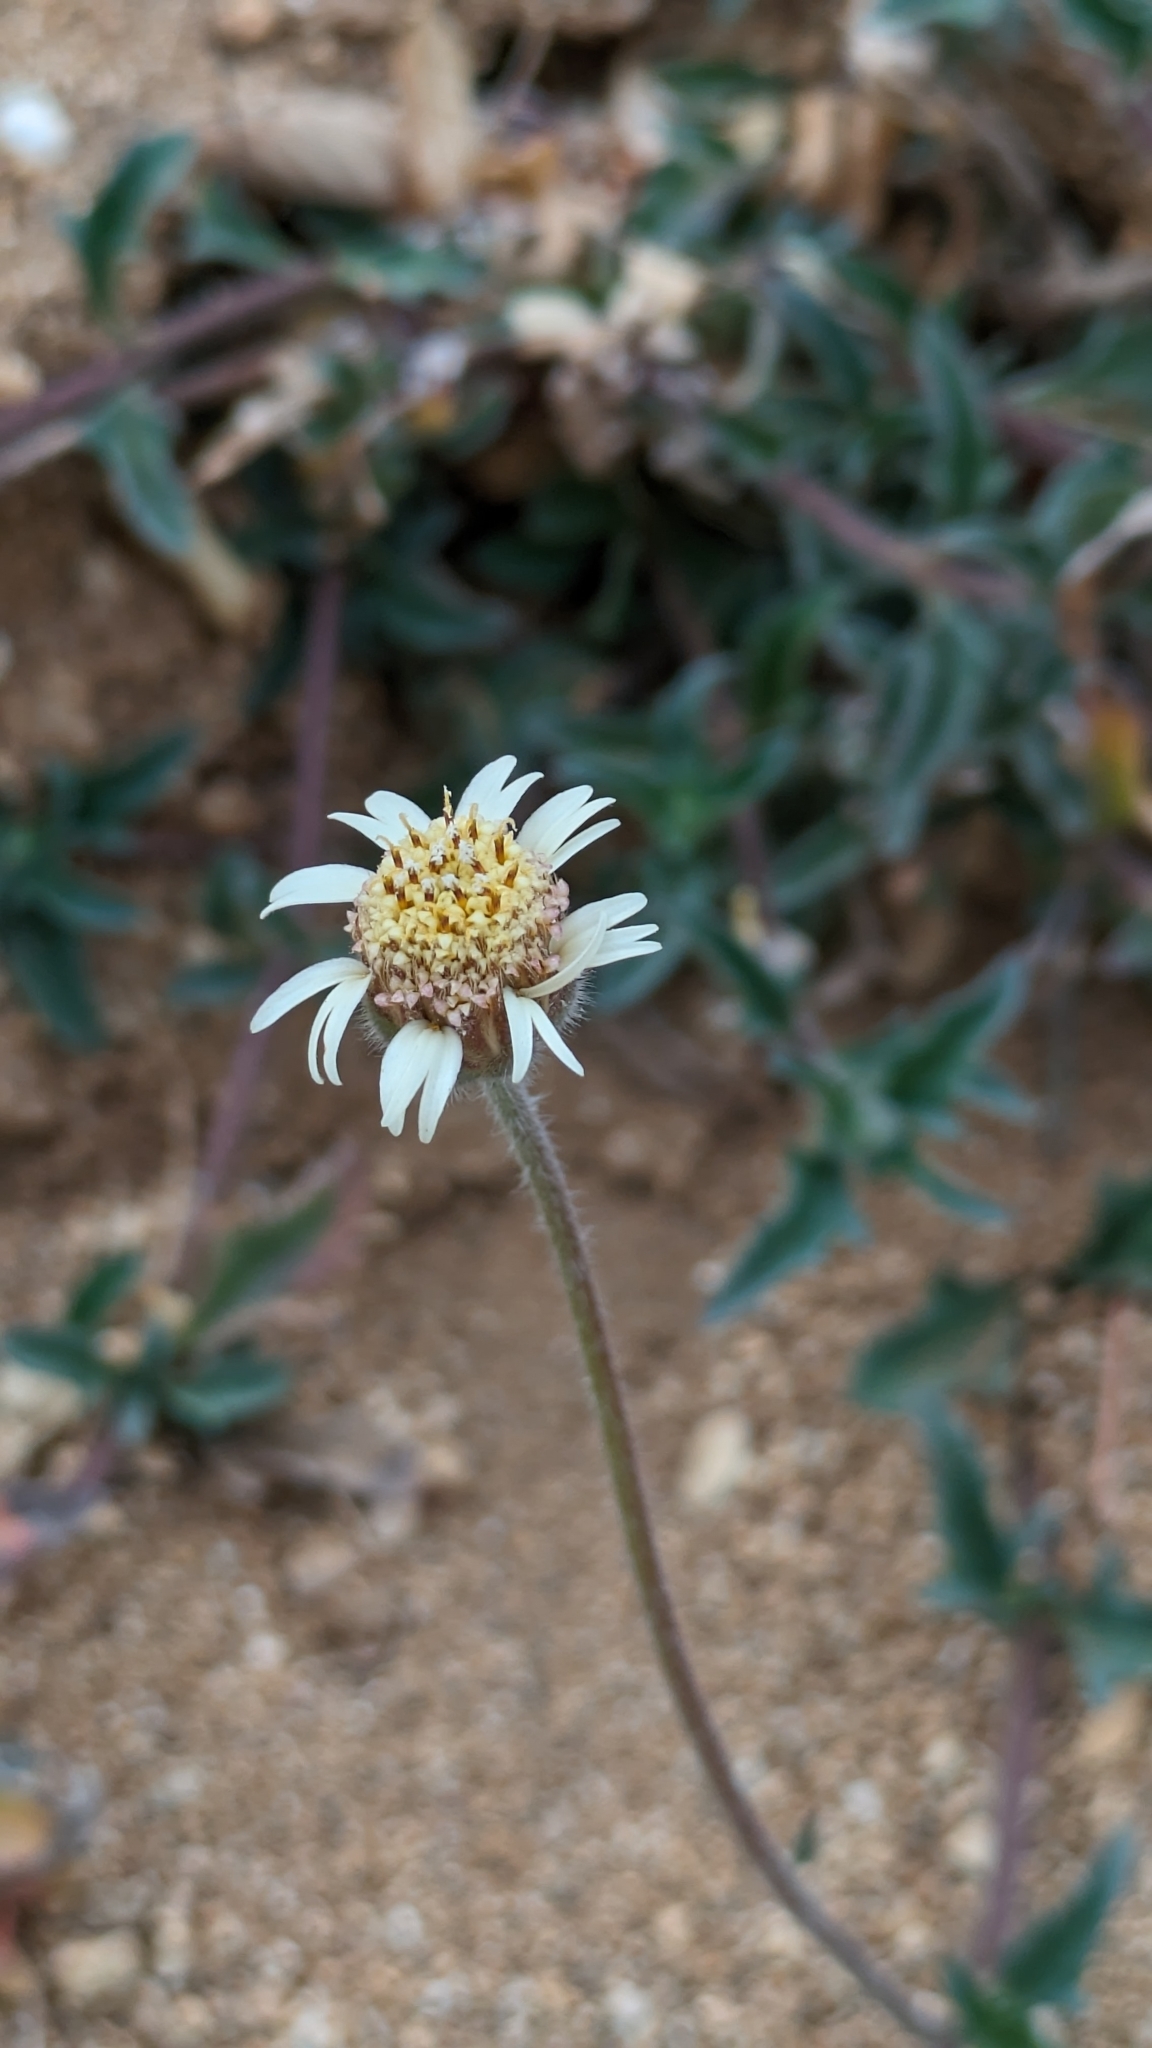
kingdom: Plantae
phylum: Tracheophyta
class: Magnoliopsida
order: Asterales
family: Asteraceae
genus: Tridax
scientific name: Tridax procumbens
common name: Coatbuttons
